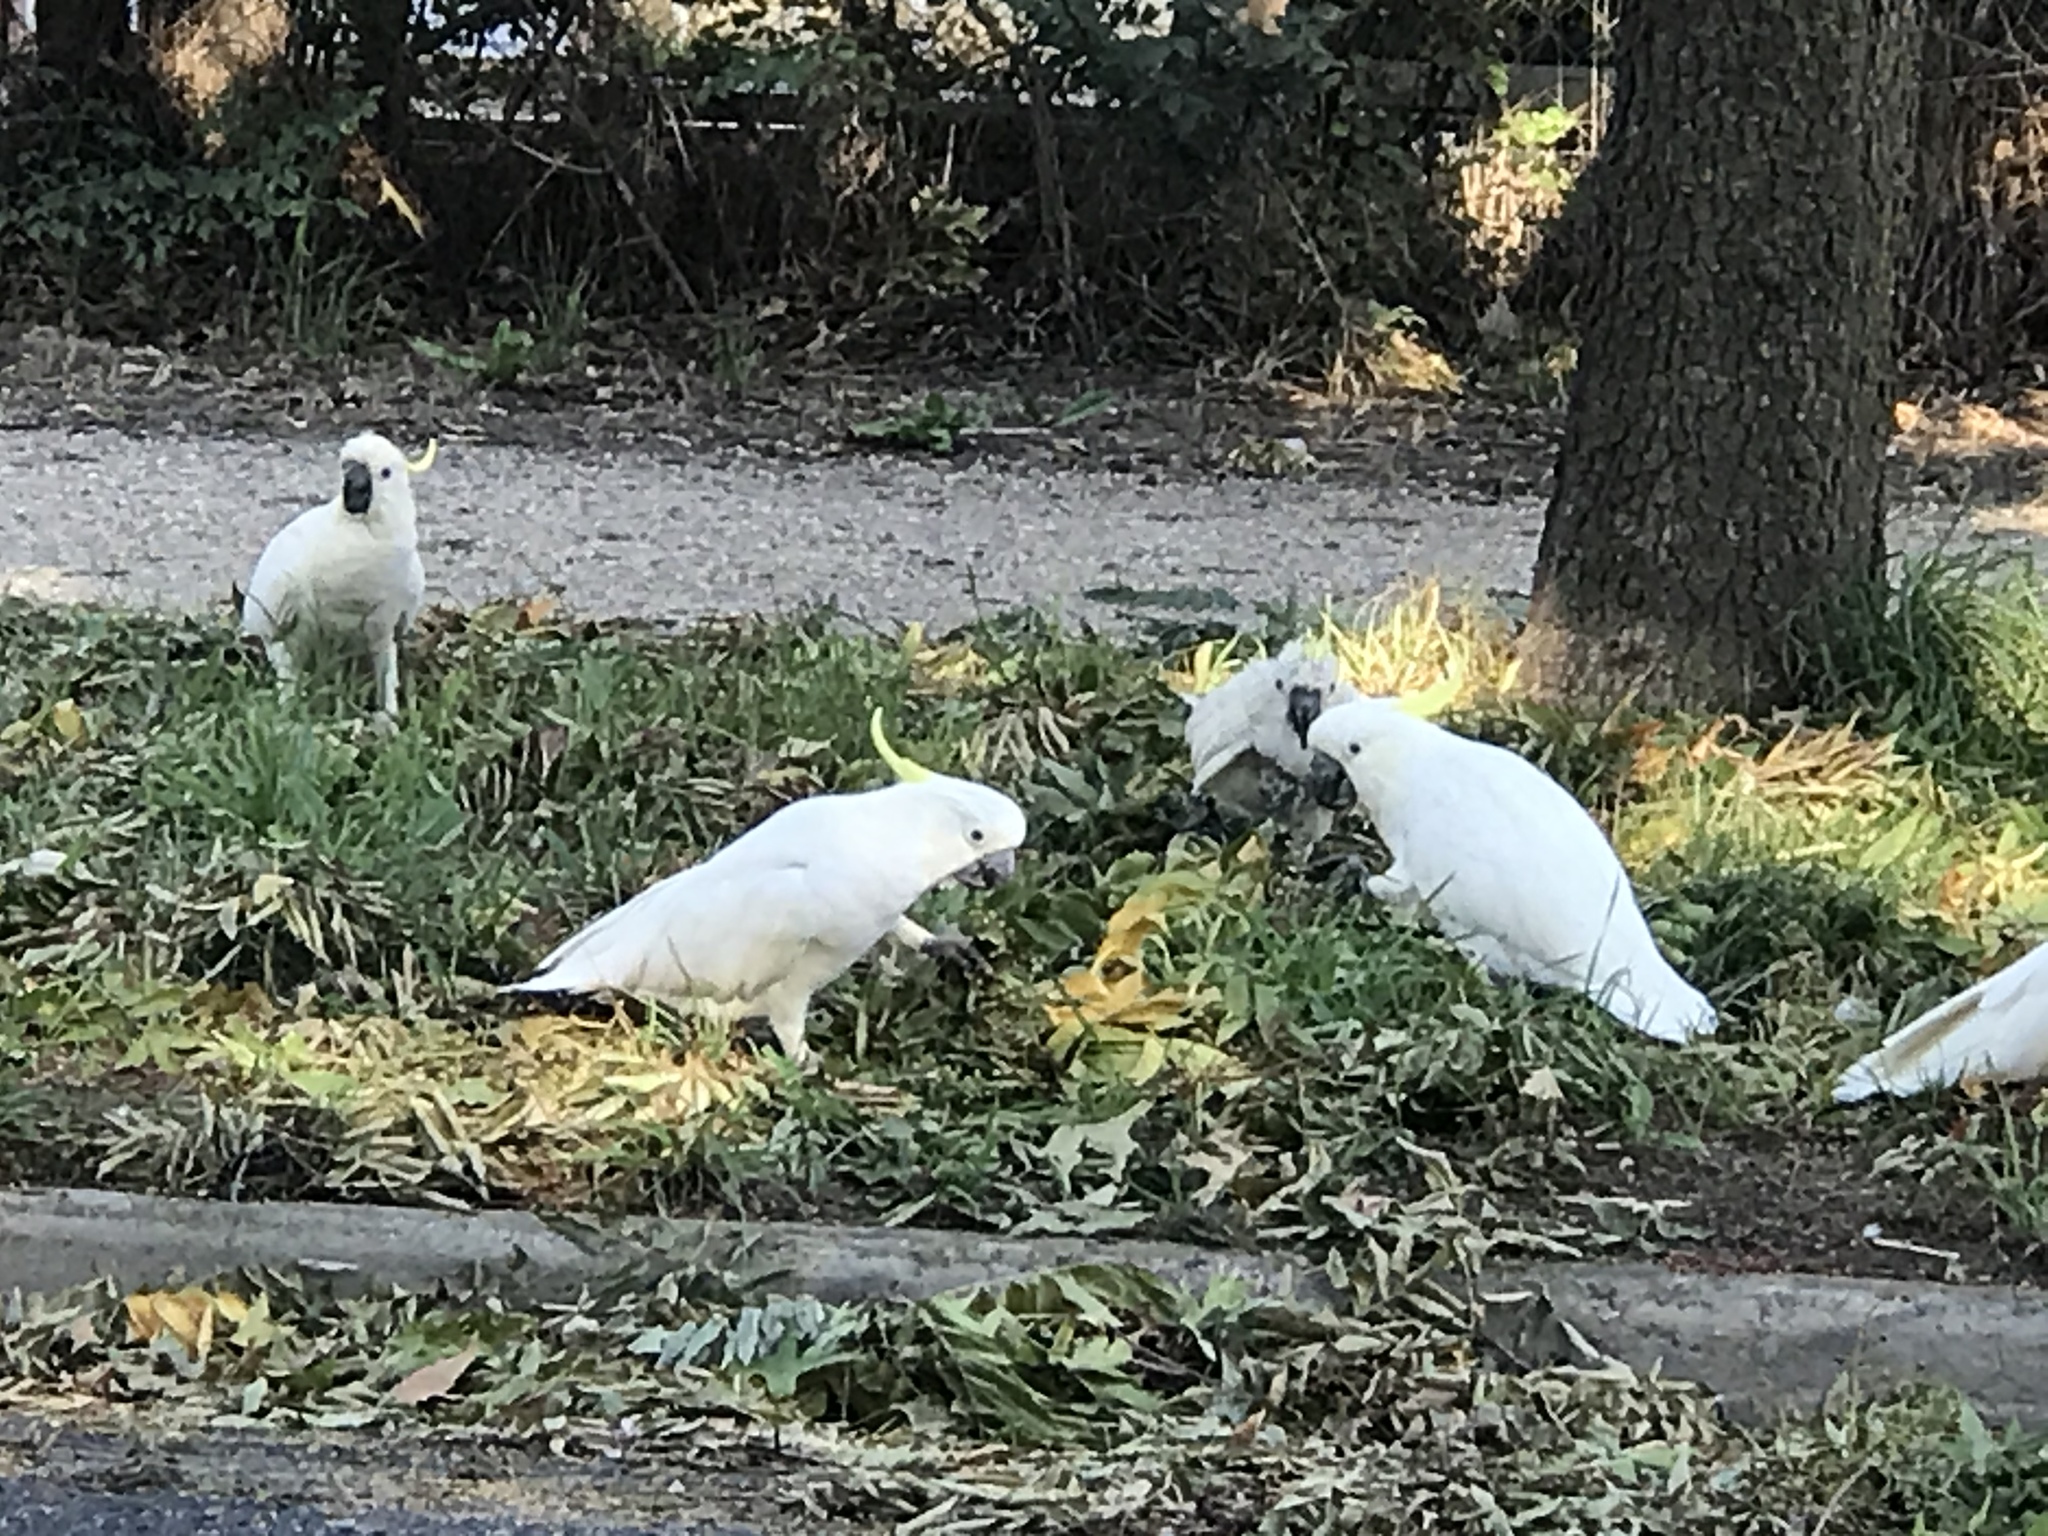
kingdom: Animalia
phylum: Chordata
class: Aves
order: Psittaciformes
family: Psittacidae
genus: Cacatua
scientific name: Cacatua galerita
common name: Sulphur-crested cockatoo
